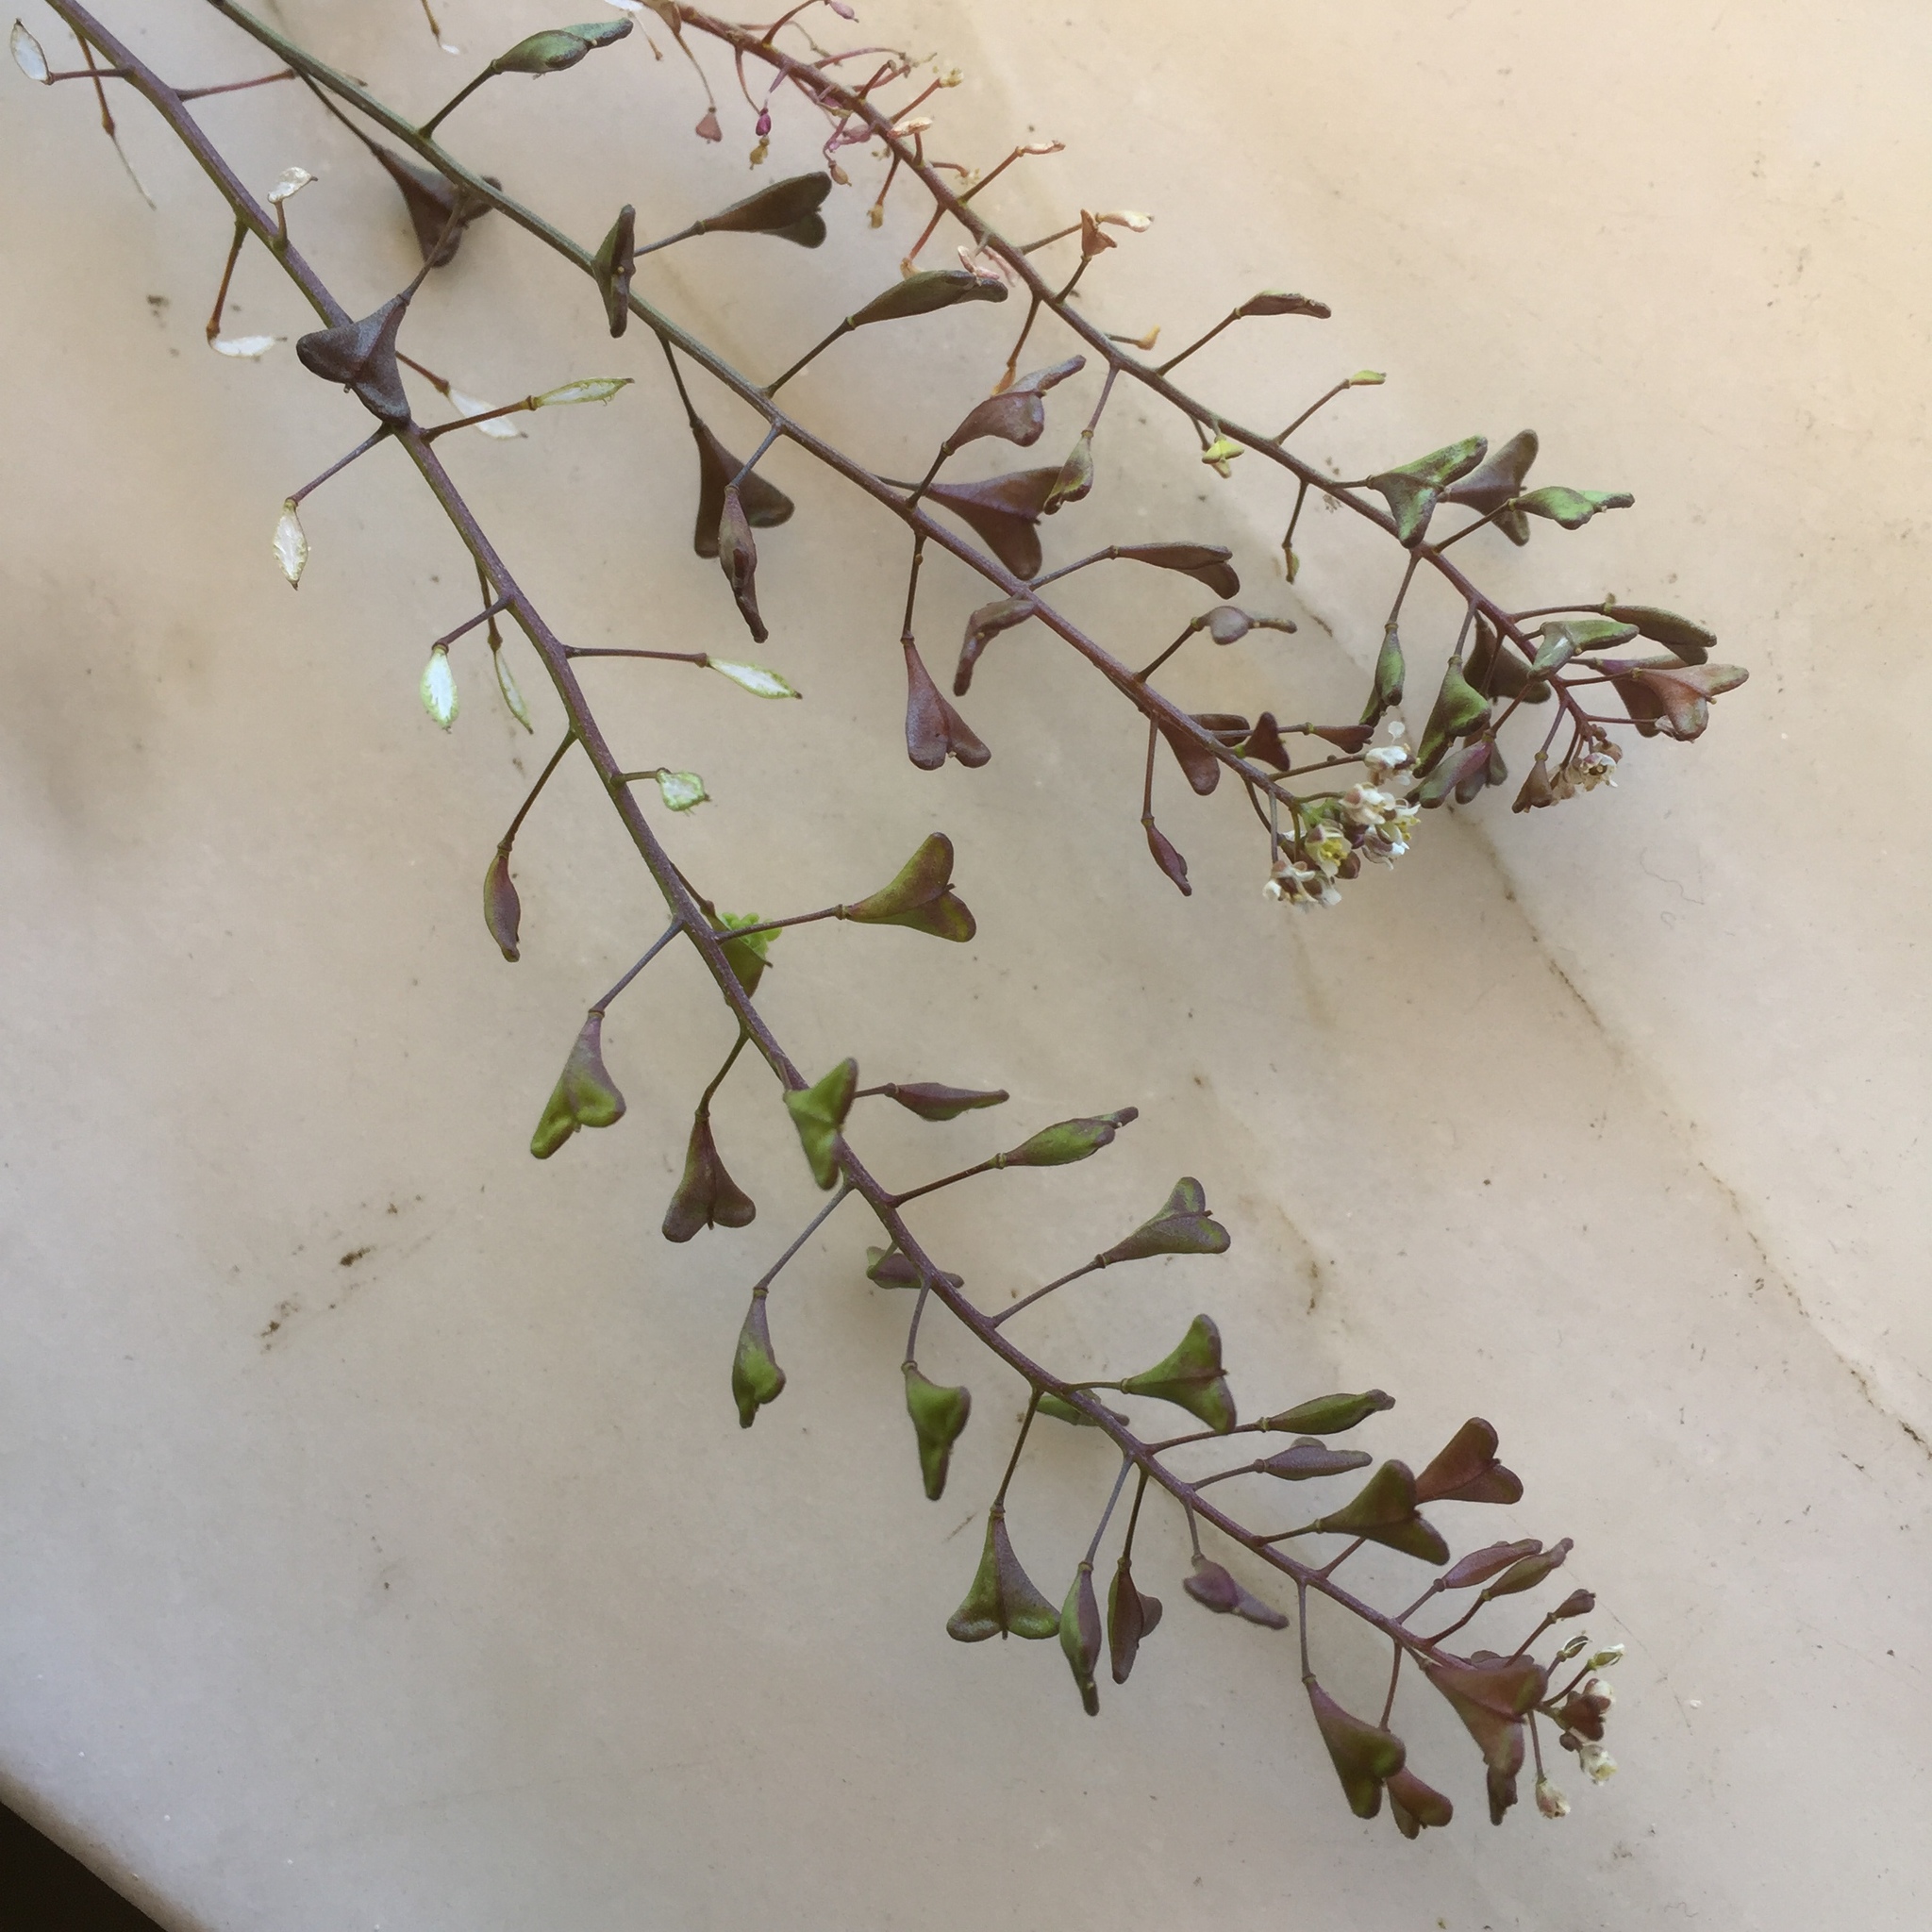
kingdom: Plantae
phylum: Tracheophyta
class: Magnoliopsida
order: Brassicales
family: Brassicaceae
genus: Capsella
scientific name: Capsella rubella
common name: Pink shepherd's-purse
